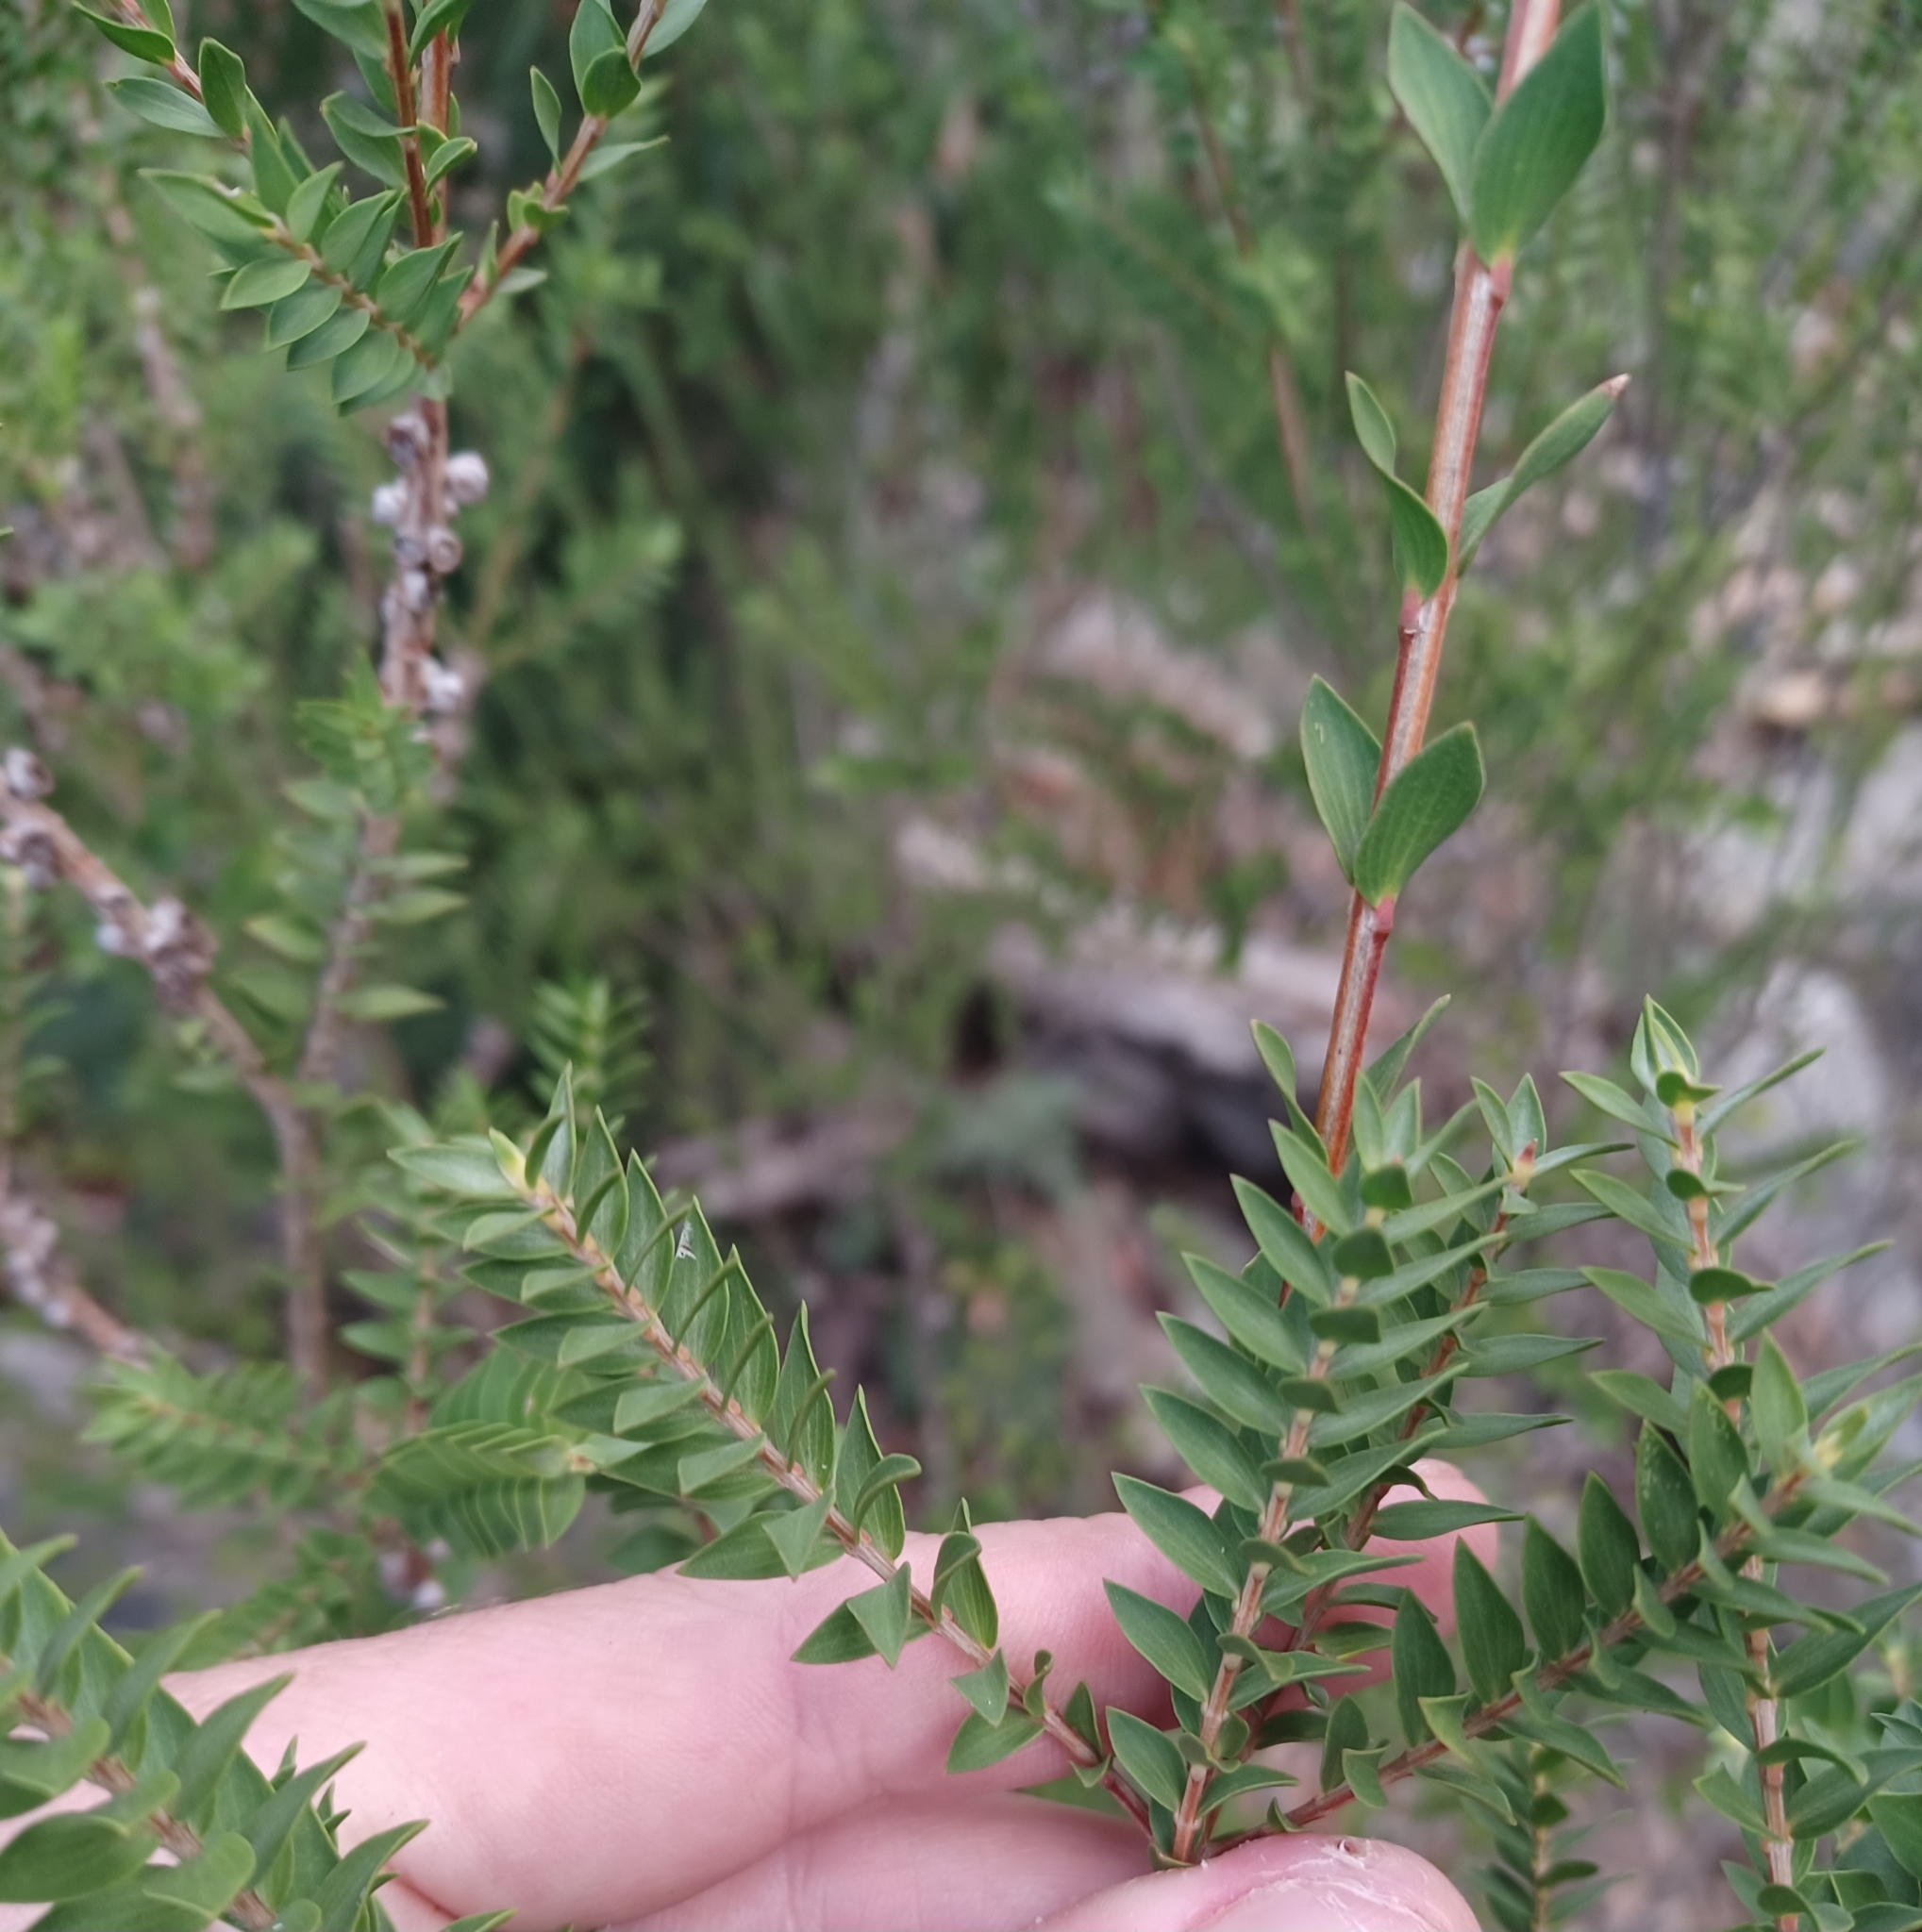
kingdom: Plantae
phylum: Tracheophyta
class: Magnoliopsida
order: Myrtales
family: Myrtaceae
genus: Melaleuca
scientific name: Melaleuca squarrosa
